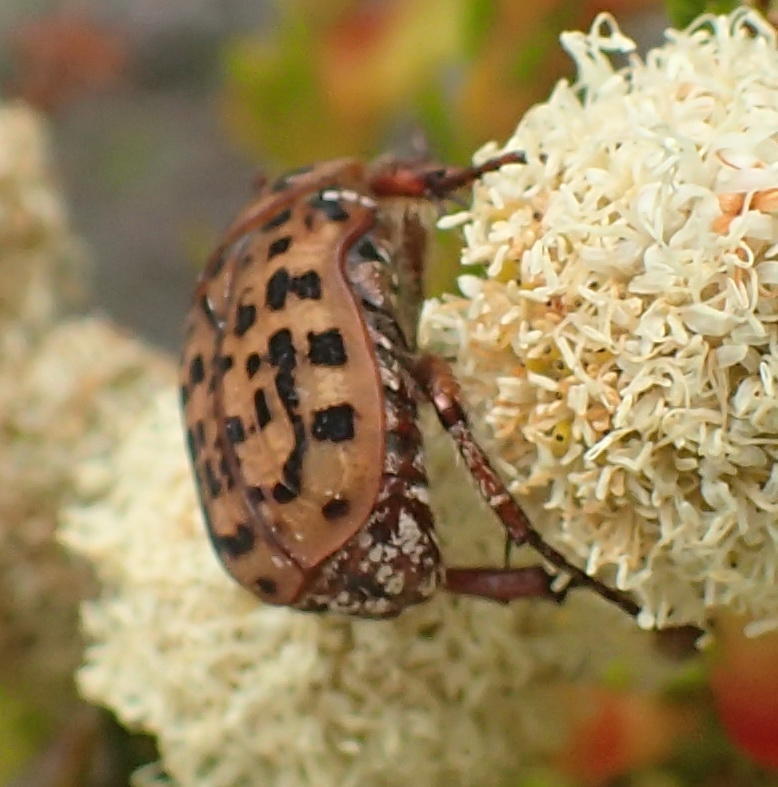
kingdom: Animalia
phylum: Arthropoda
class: Insecta
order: Coleoptera
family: Scarabaeidae
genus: Atrichelaphinis
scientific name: Atrichelaphinis tigrina
